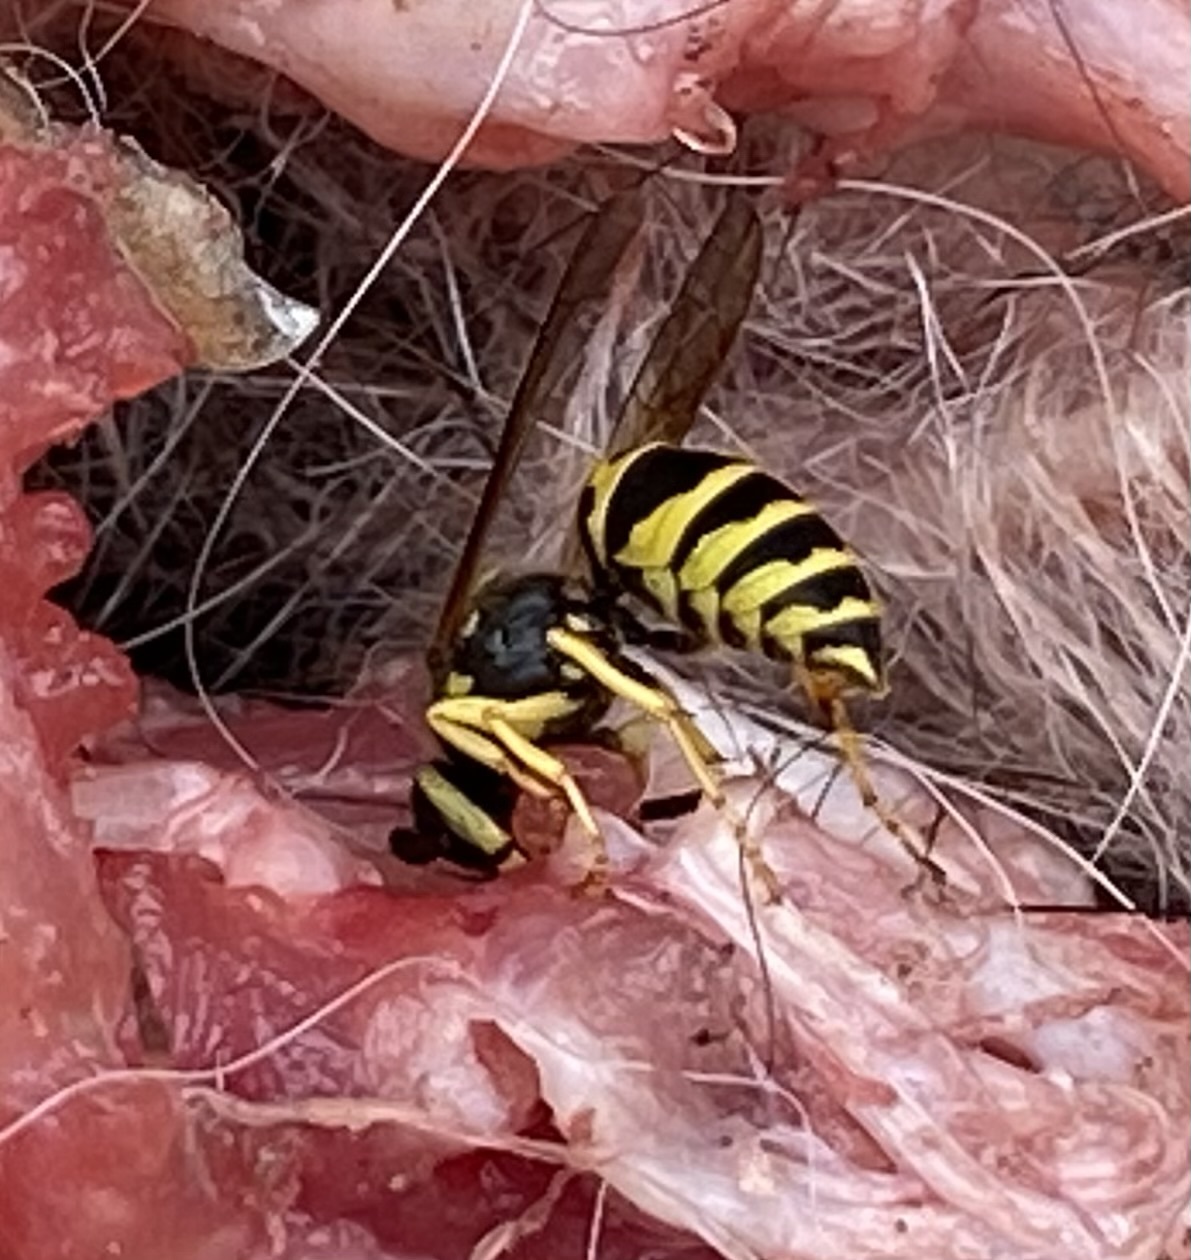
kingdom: Animalia
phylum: Arthropoda
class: Insecta
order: Hymenoptera
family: Vespidae
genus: Vespula
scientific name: Vespula maculifrons
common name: Eastern yellowjacket
